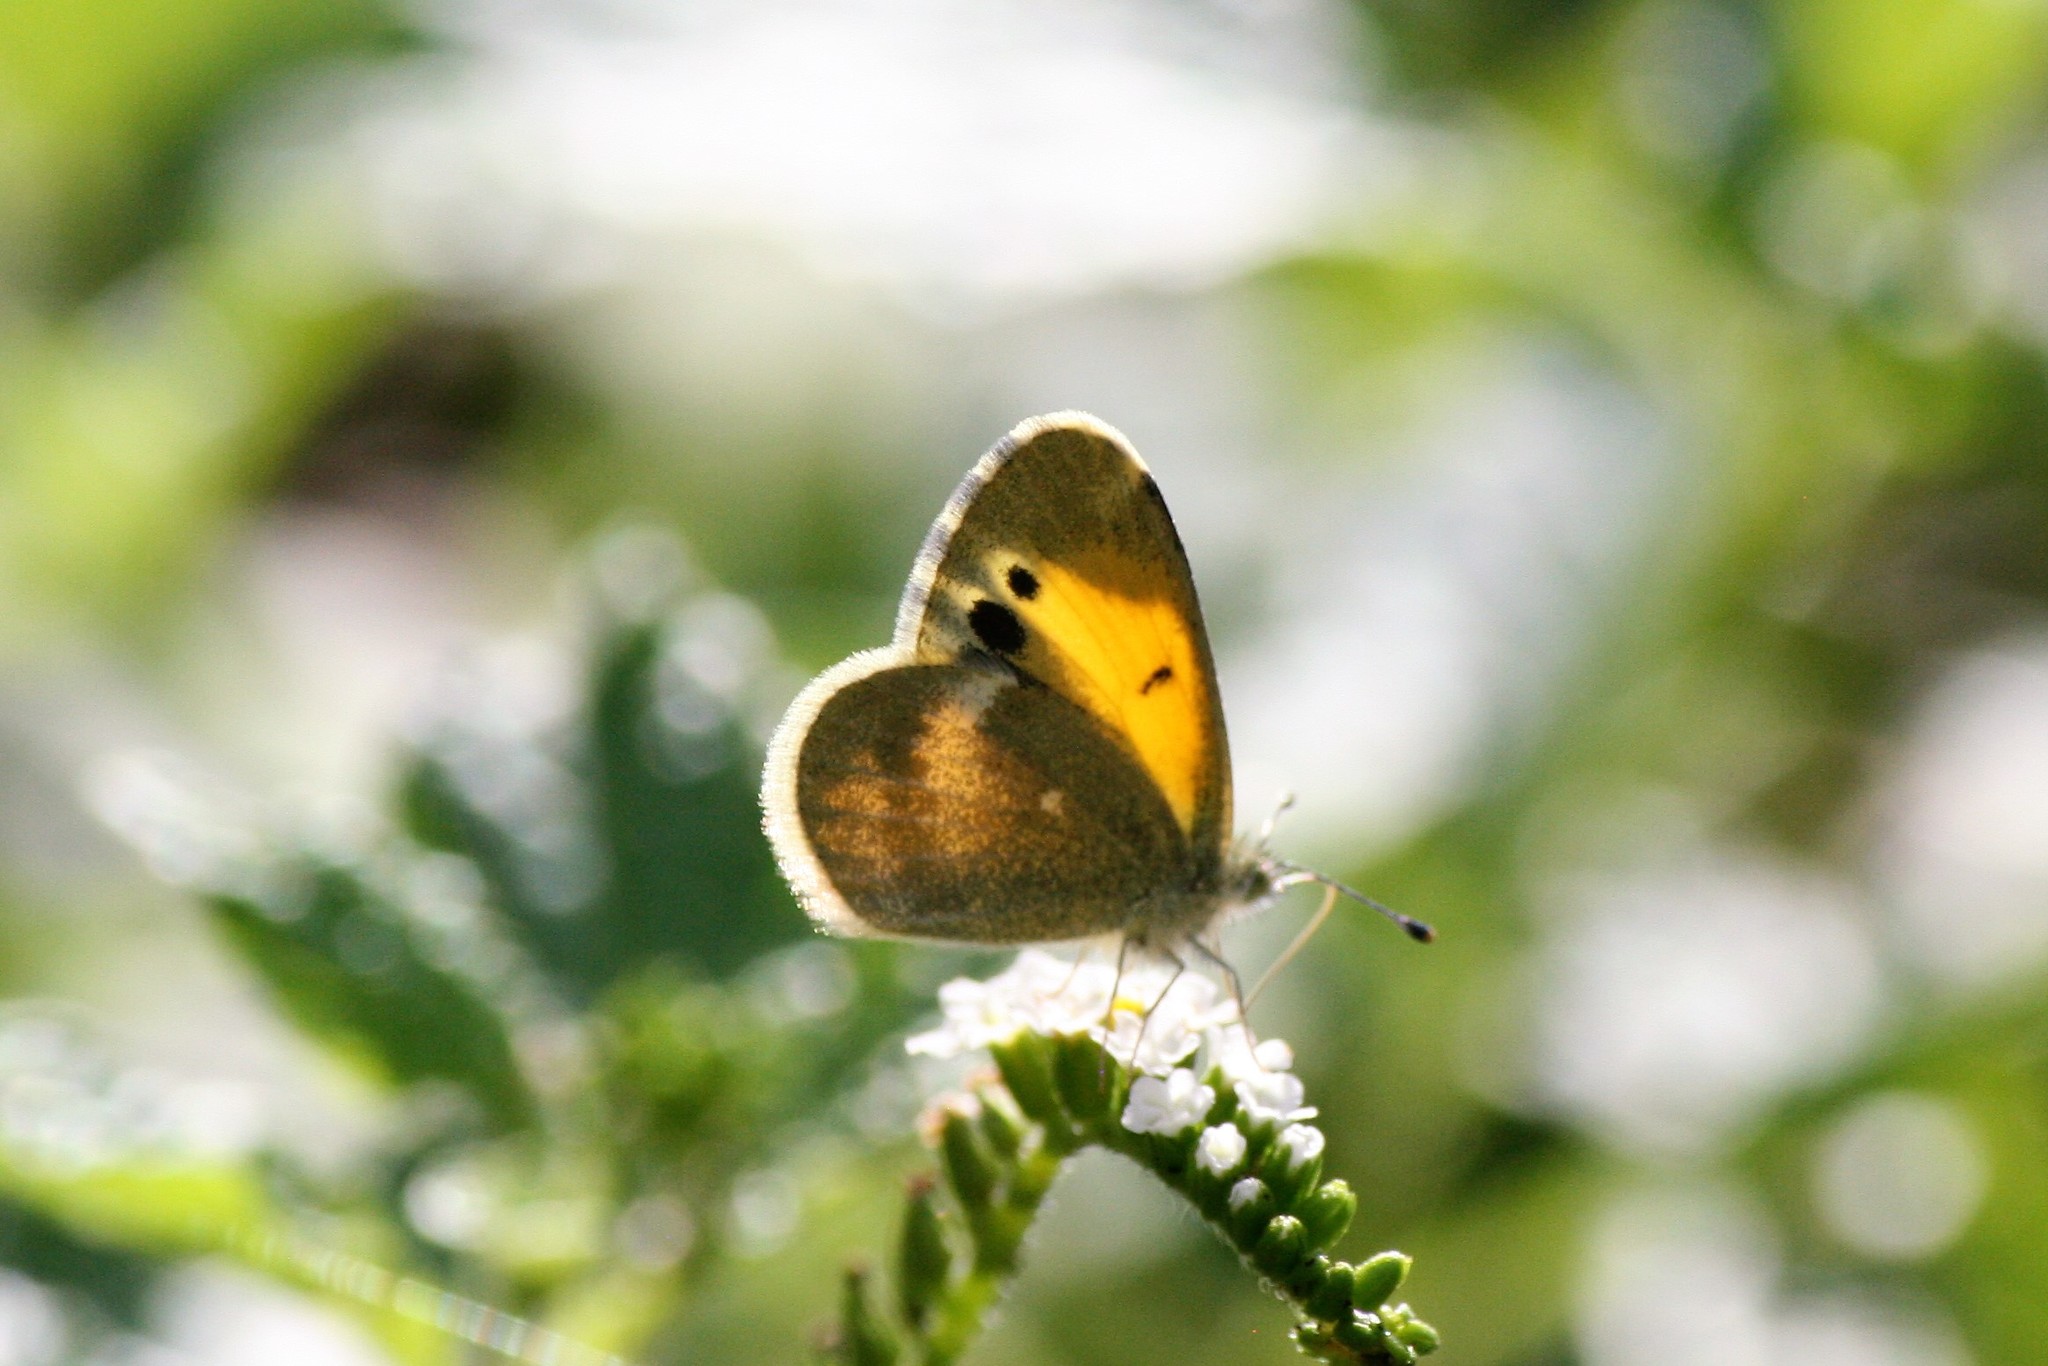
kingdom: Animalia
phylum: Arthropoda
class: Insecta
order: Lepidoptera
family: Pieridae
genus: Nathalis
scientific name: Nathalis iole
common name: Dainty sulphur
